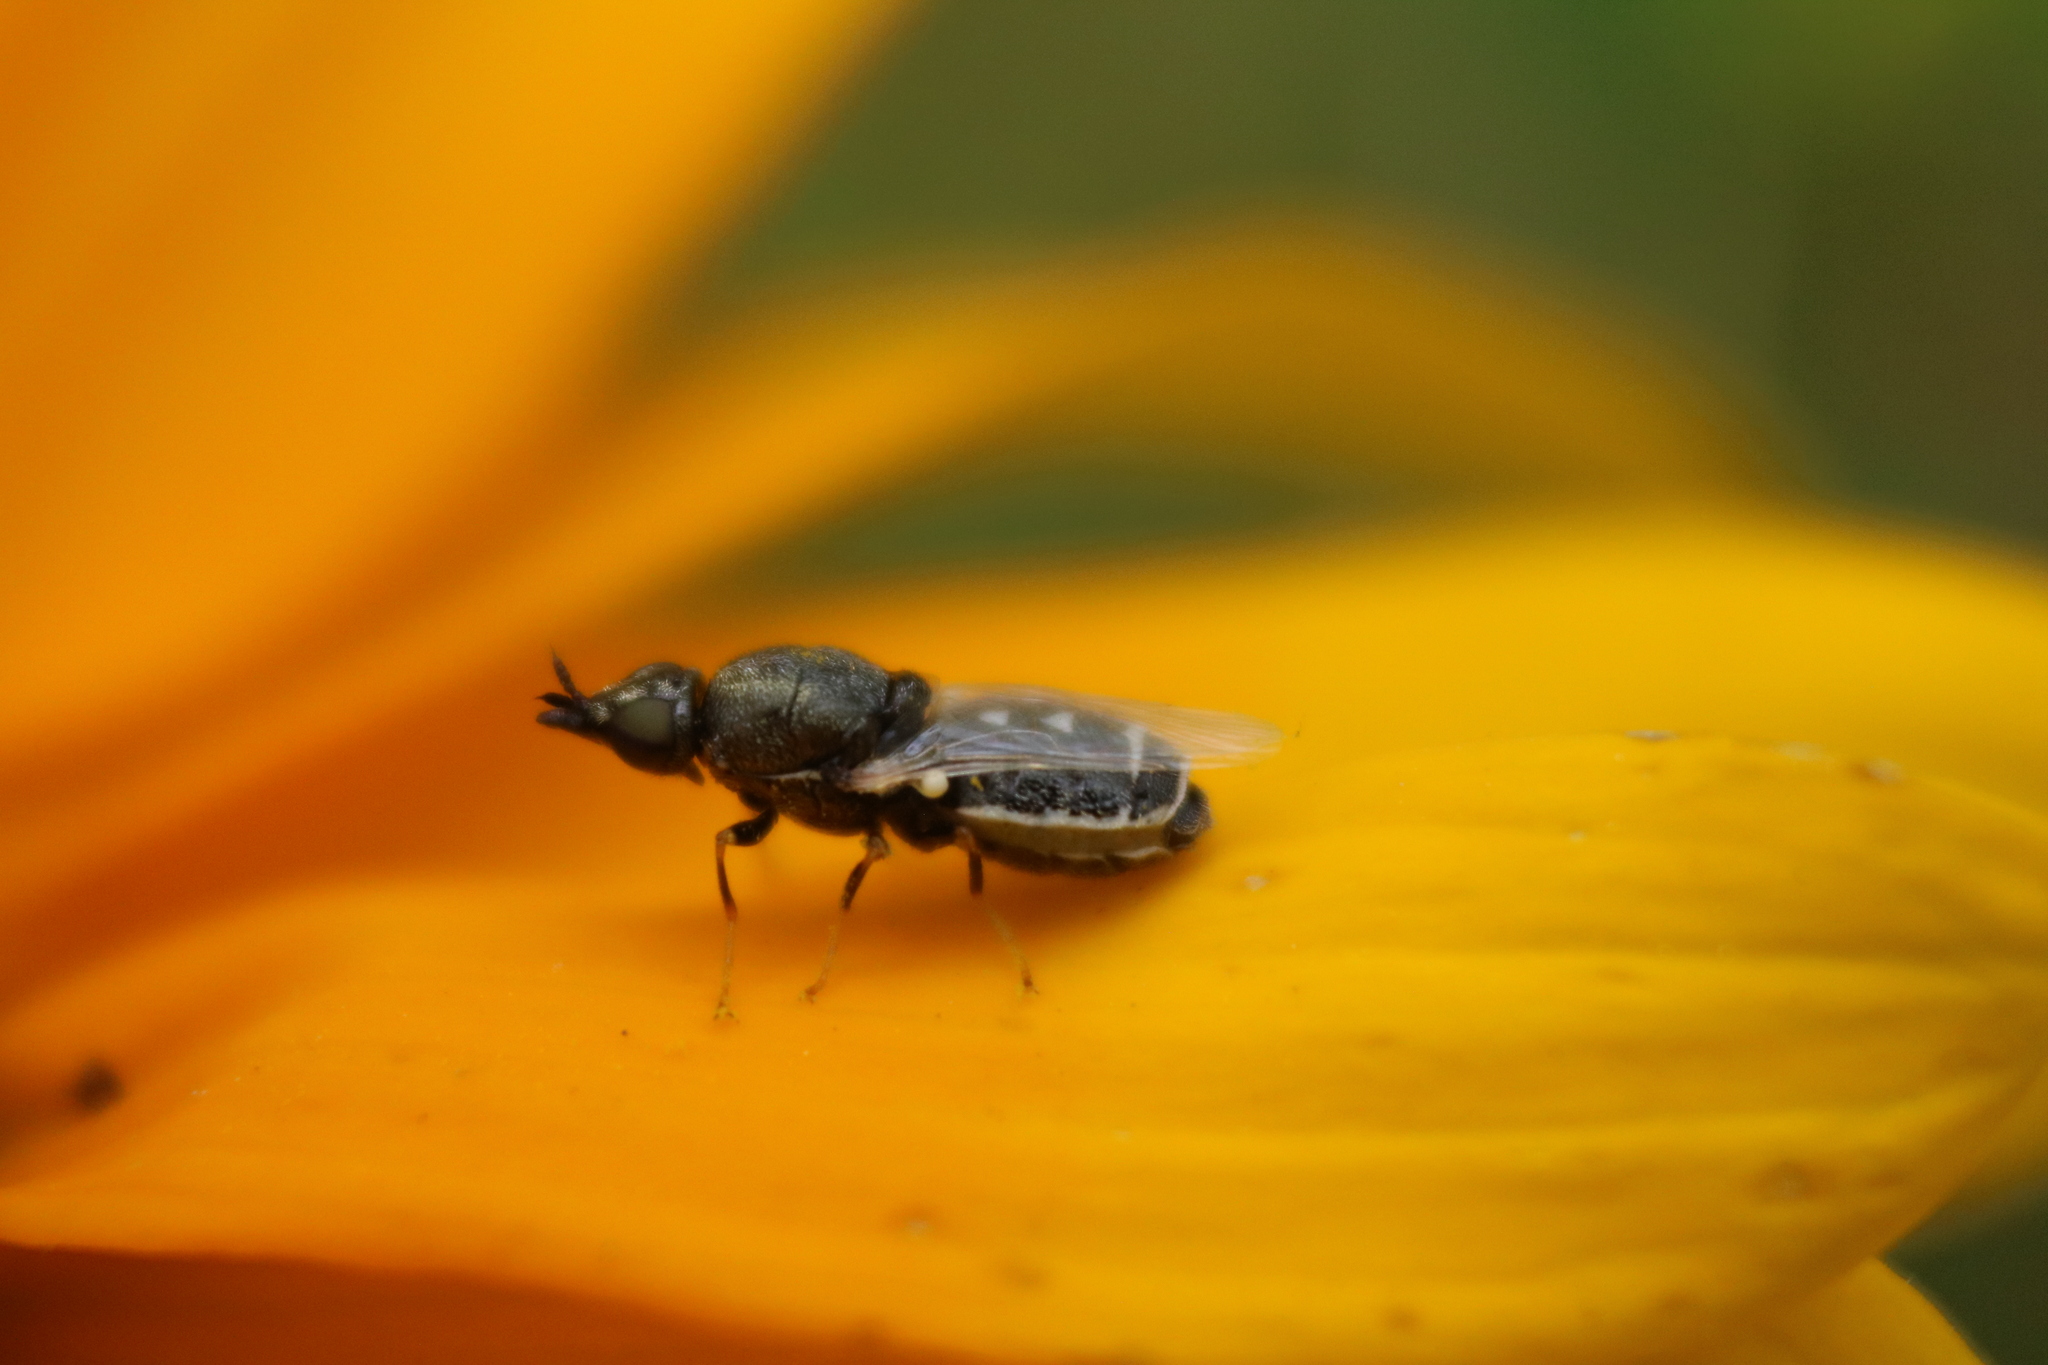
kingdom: Animalia
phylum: Arthropoda
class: Insecta
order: Diptera
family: Stratiomyidae
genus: Nemotelus
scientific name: Nemotelus kansensis
